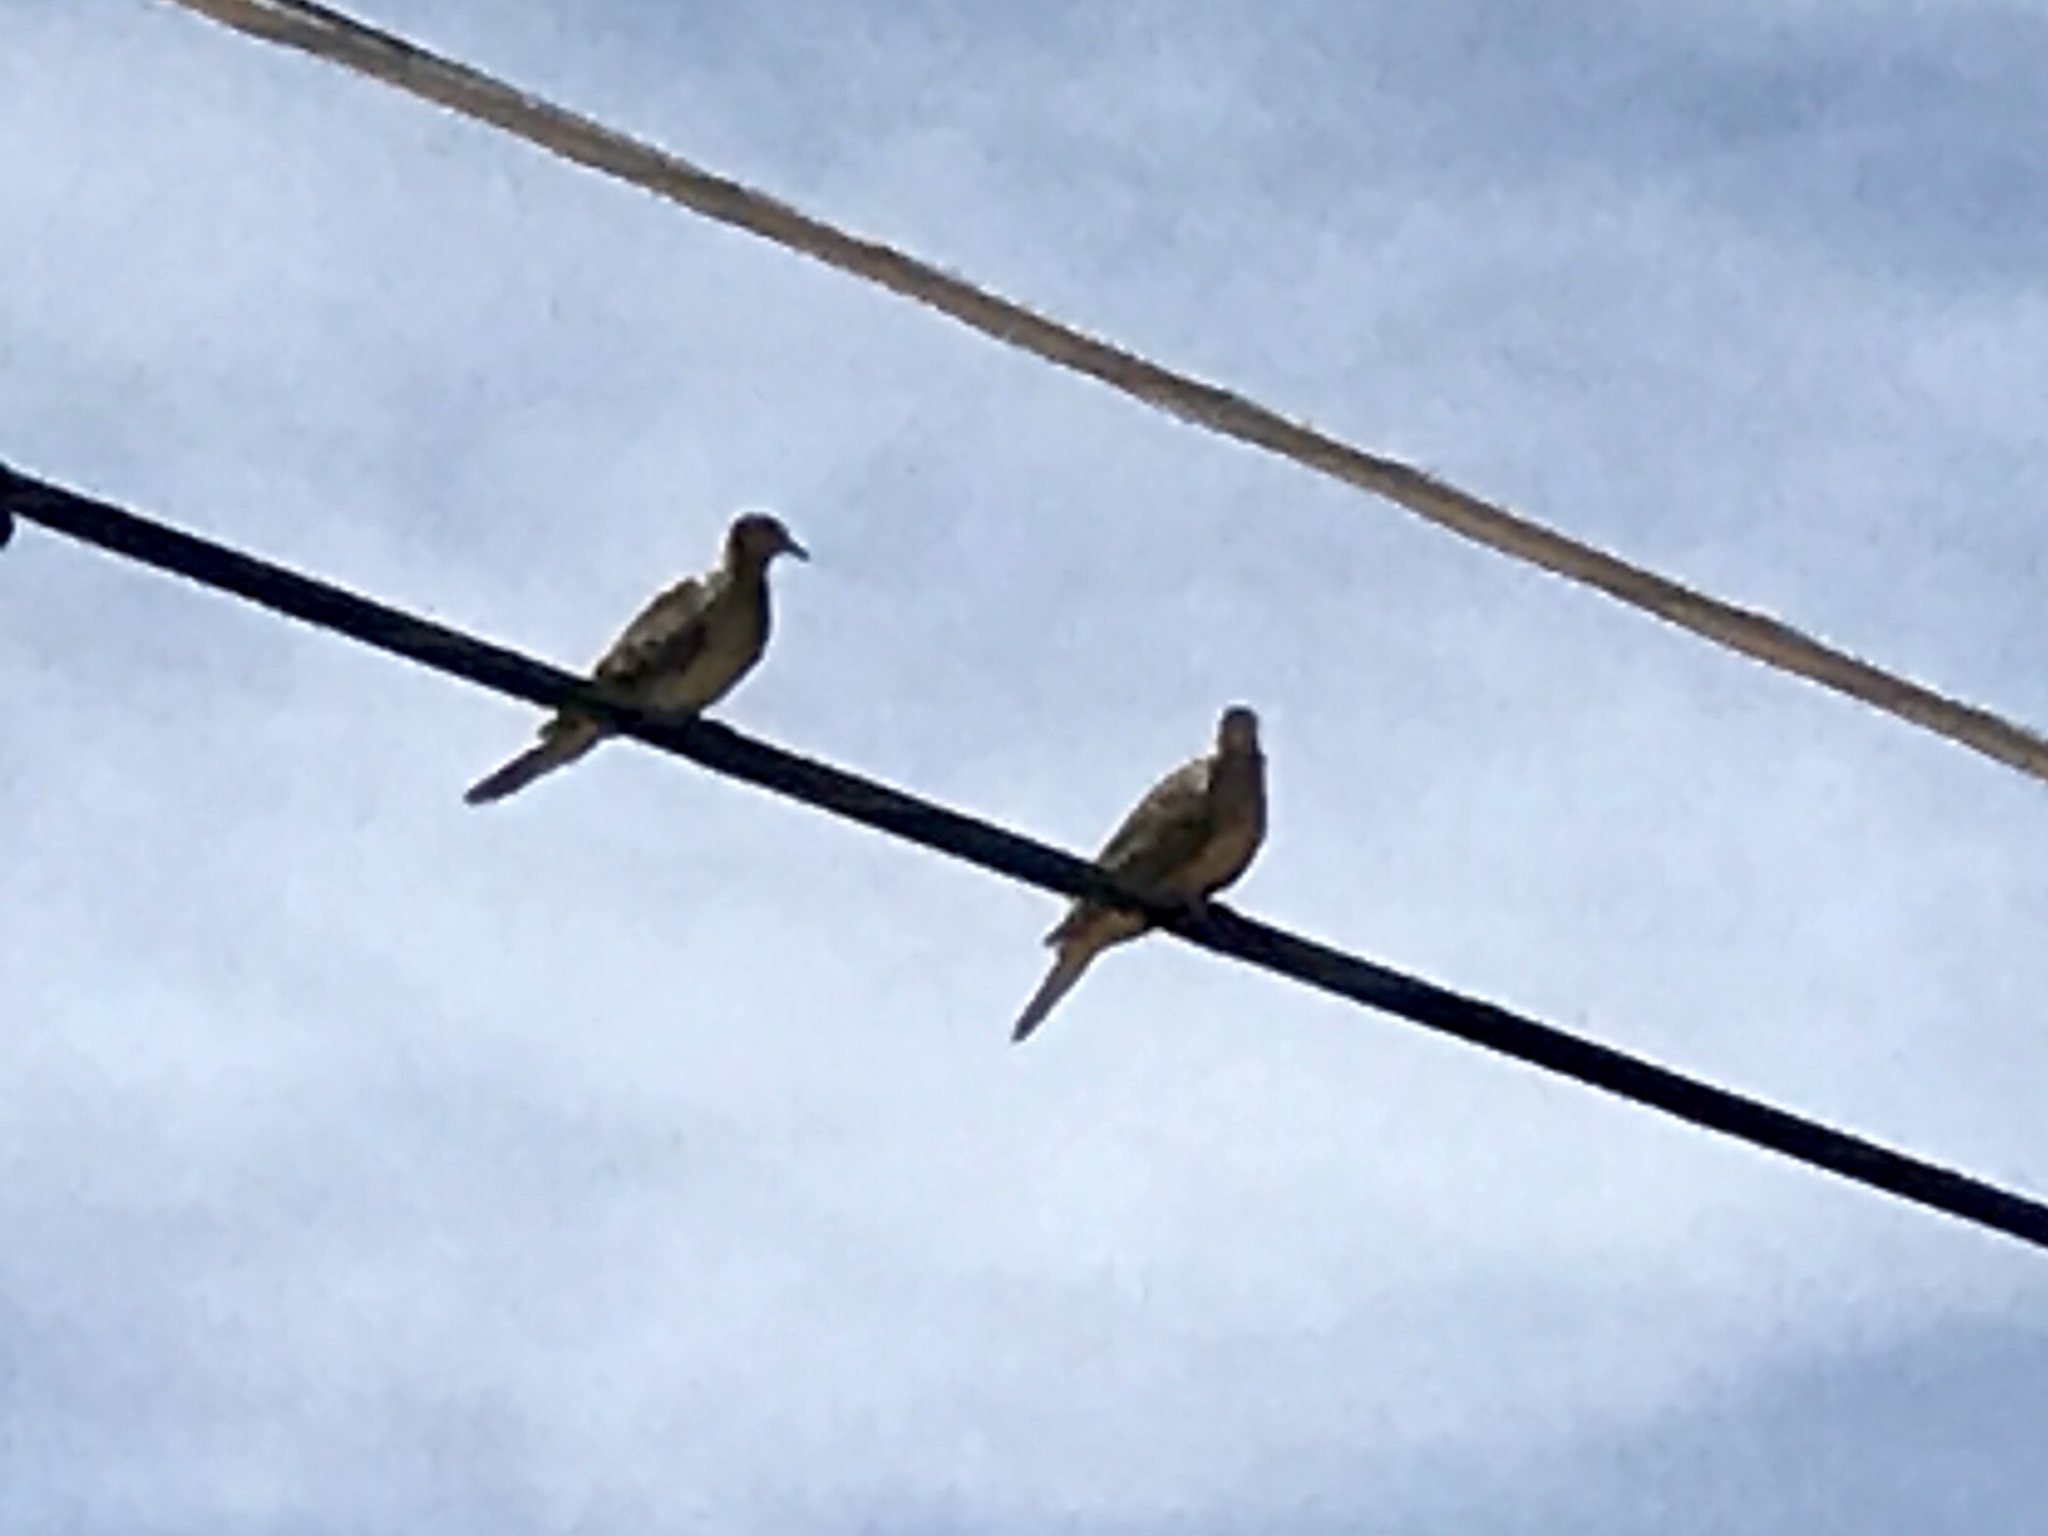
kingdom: Animalia
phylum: Chordata
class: Aves
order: Columbiformes
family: Columbidae
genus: Zenaida
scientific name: Zenaida macroura
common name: Mourning dove
